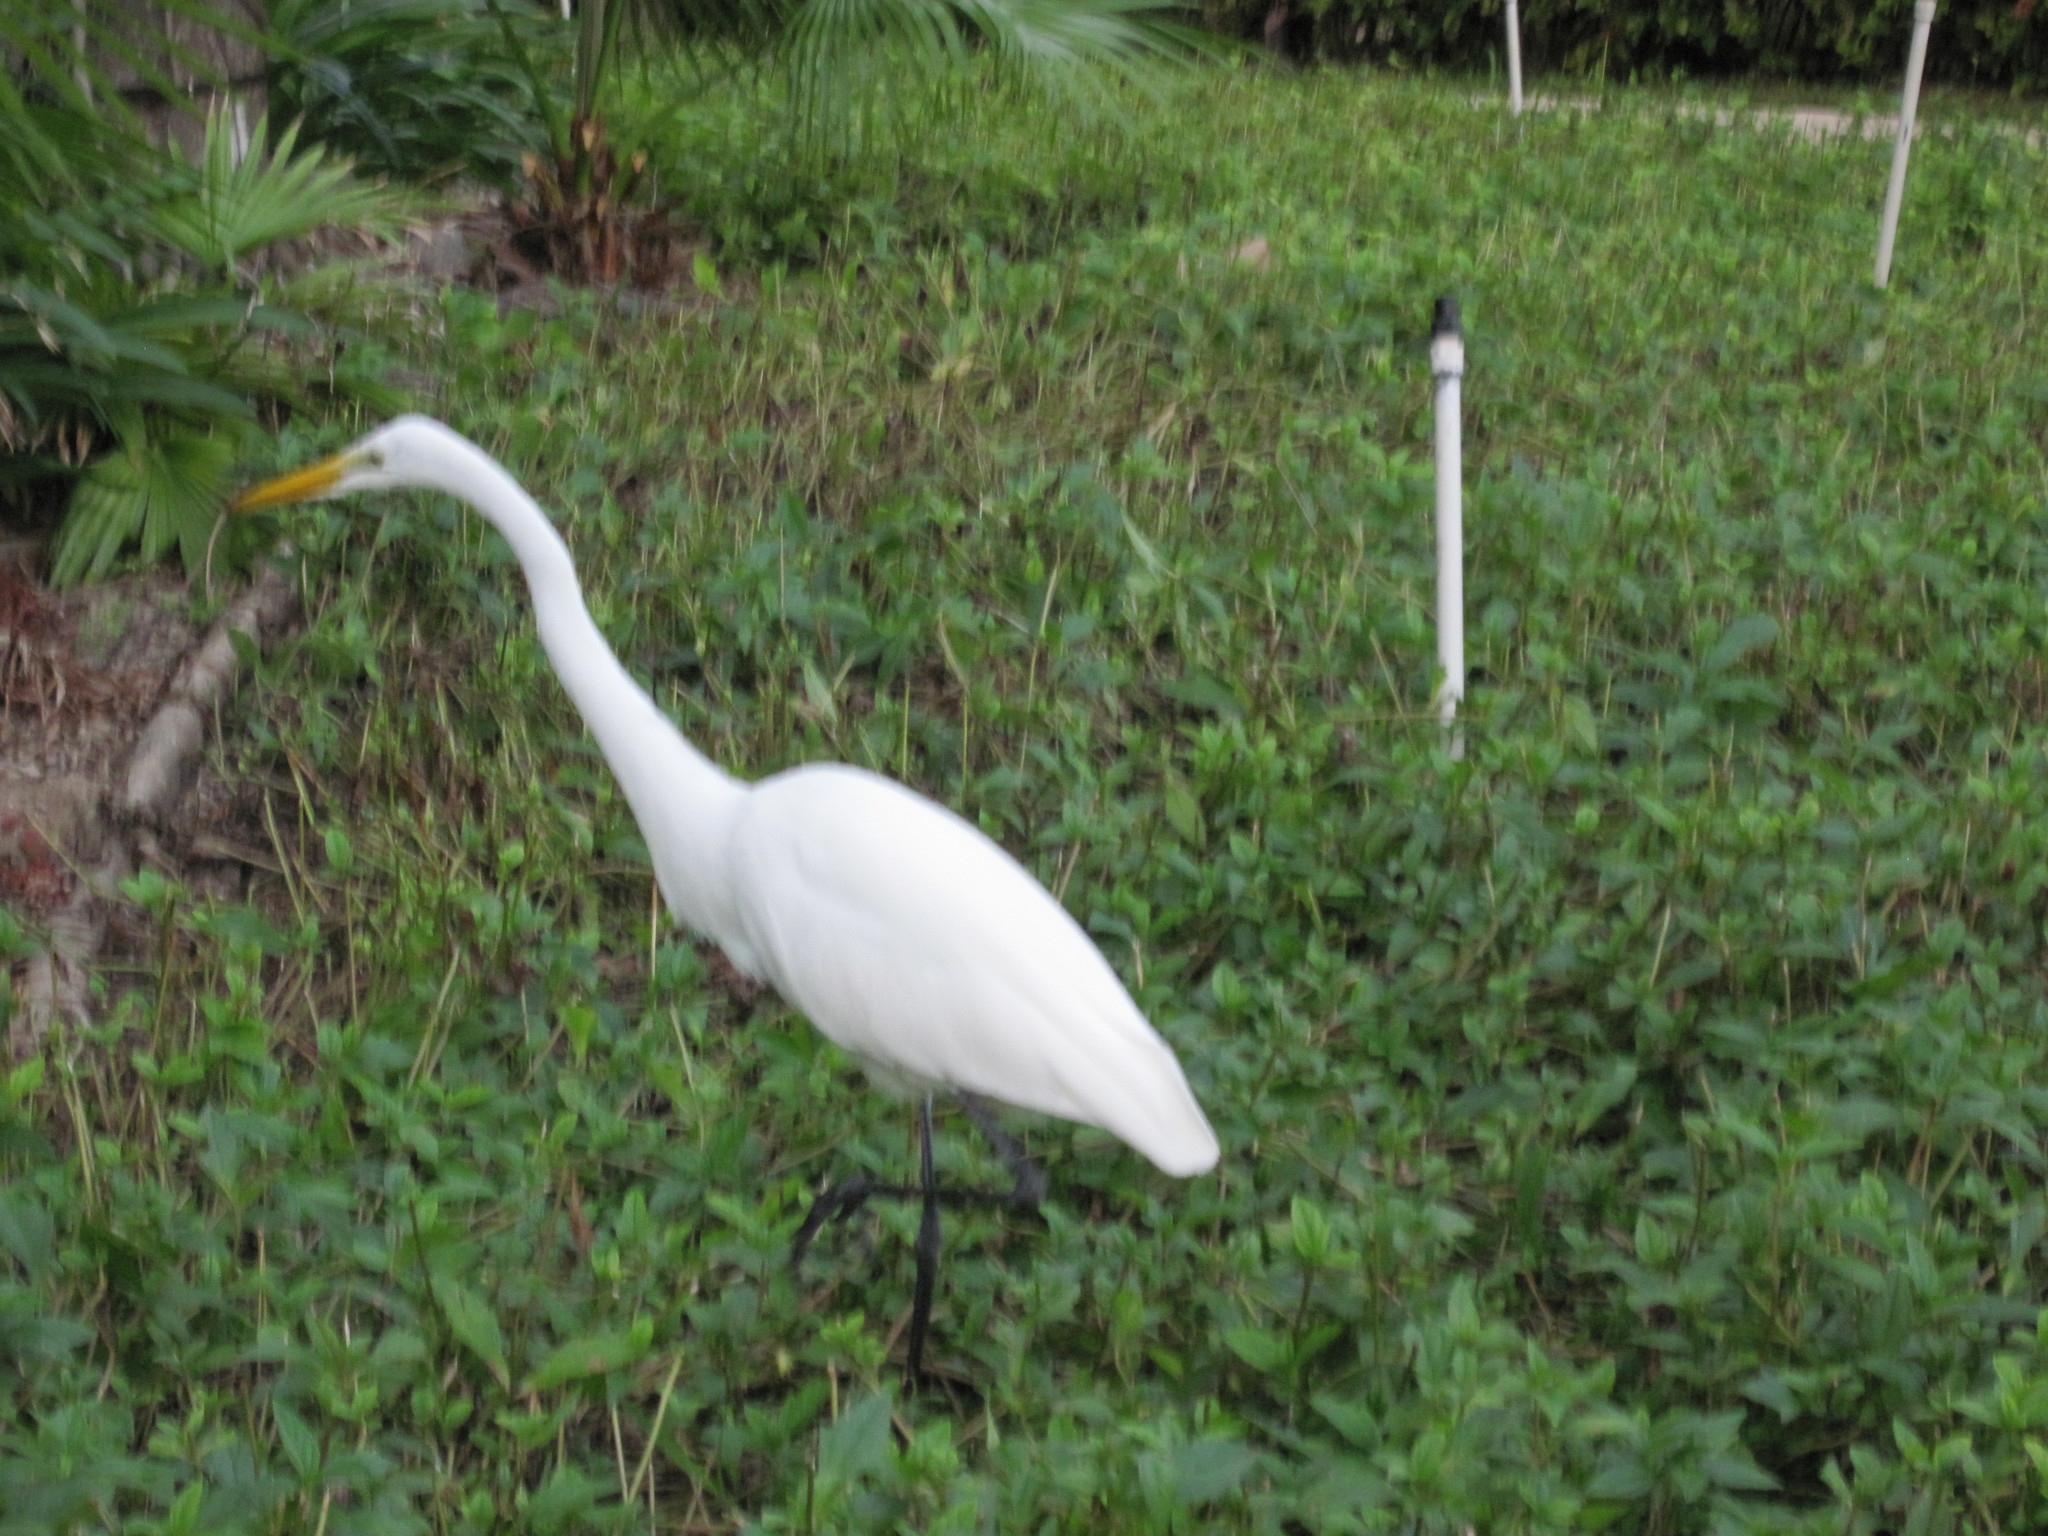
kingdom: Animalia
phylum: Chordata
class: Aves
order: Pelecaniformes
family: Ardeidae
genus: Ardea
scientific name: Ardea alba
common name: Great egret
